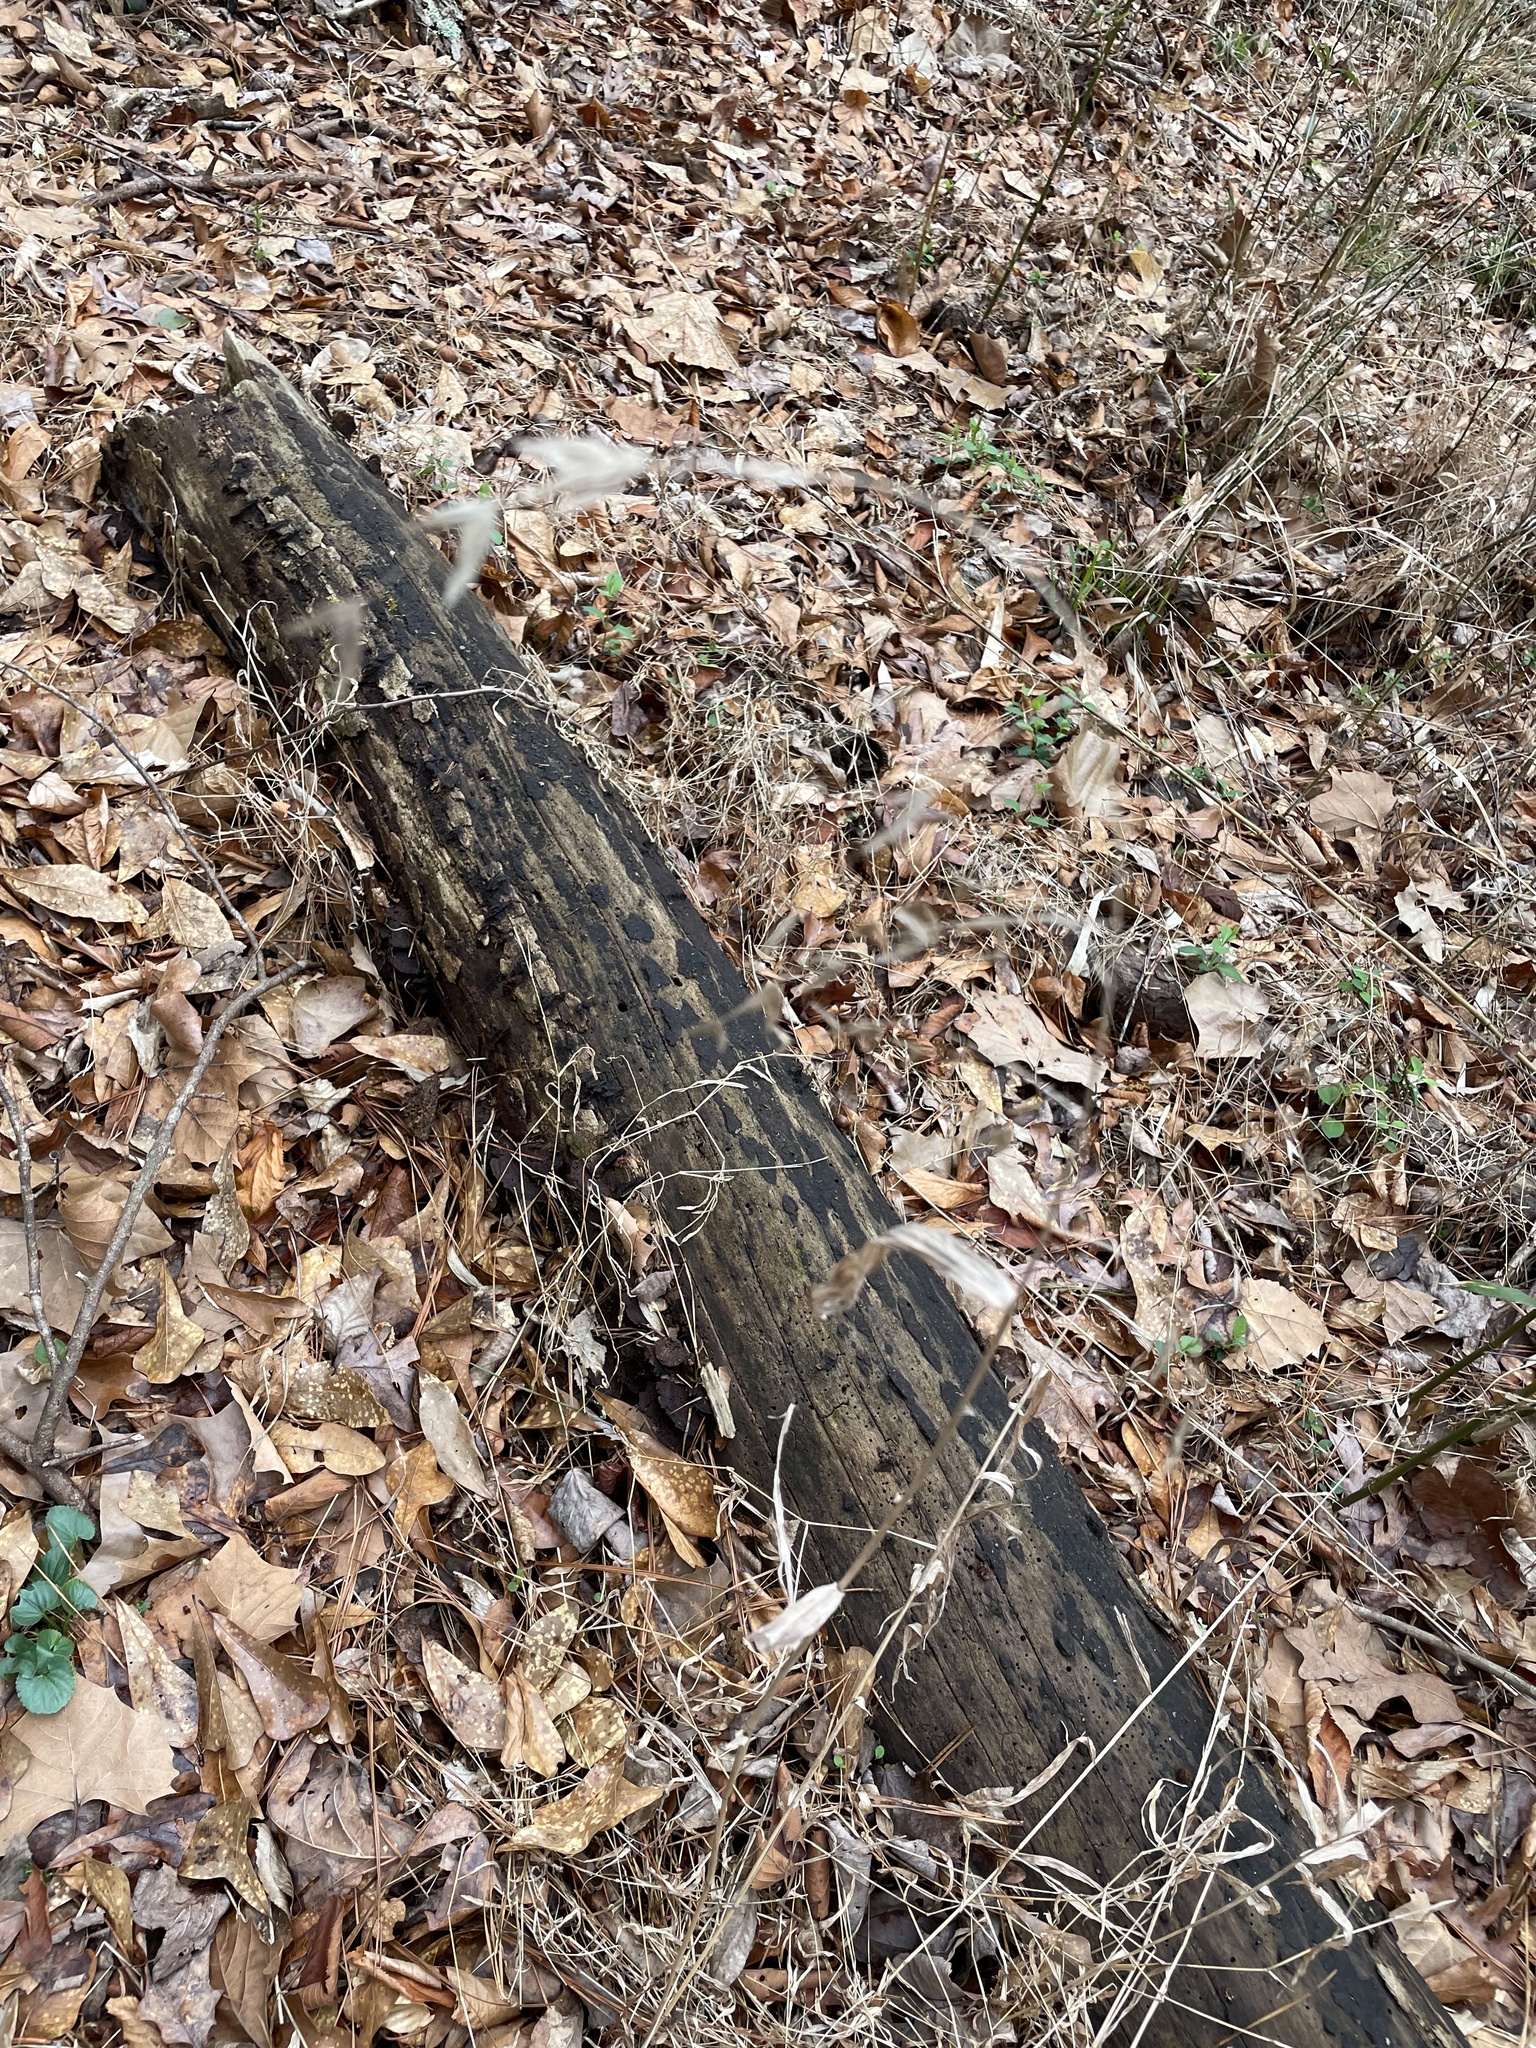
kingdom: Plantae
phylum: Tracheophyta
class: Liliopsida
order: Poales
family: Poaceae
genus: Arundinaria
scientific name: Arundinaria appalachiana
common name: Hill cane
